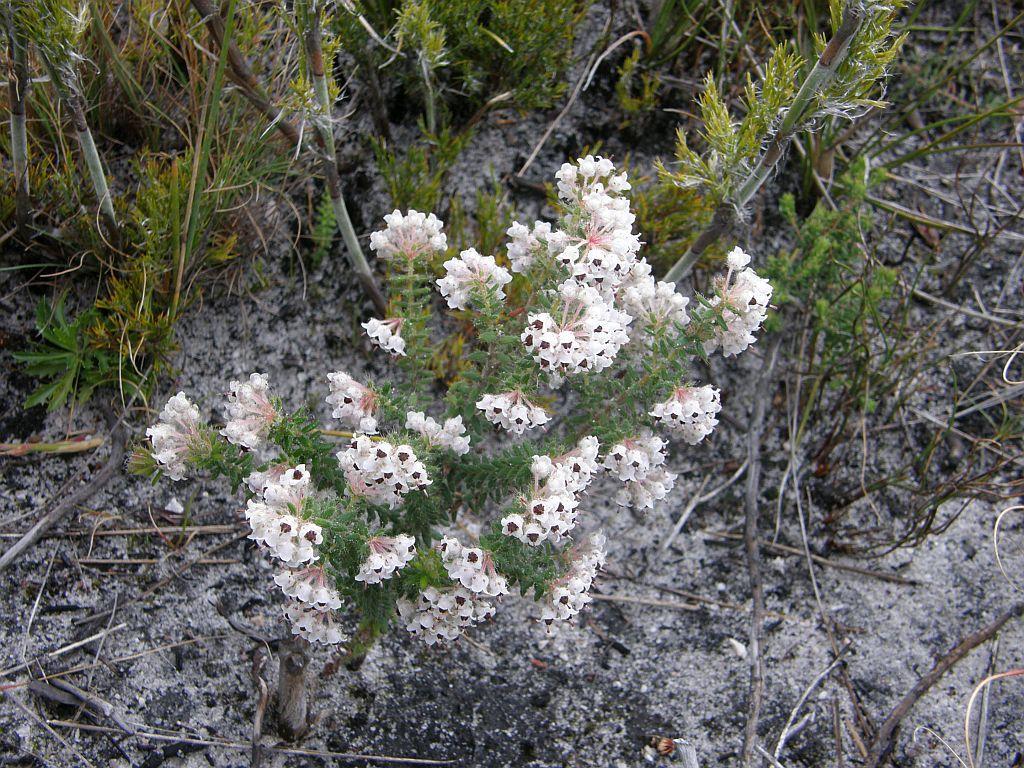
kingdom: Plantae
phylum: Tracheophyta
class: Magnoliopsida
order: Ericales
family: Ericaceae
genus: Erica
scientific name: Erica perlata
